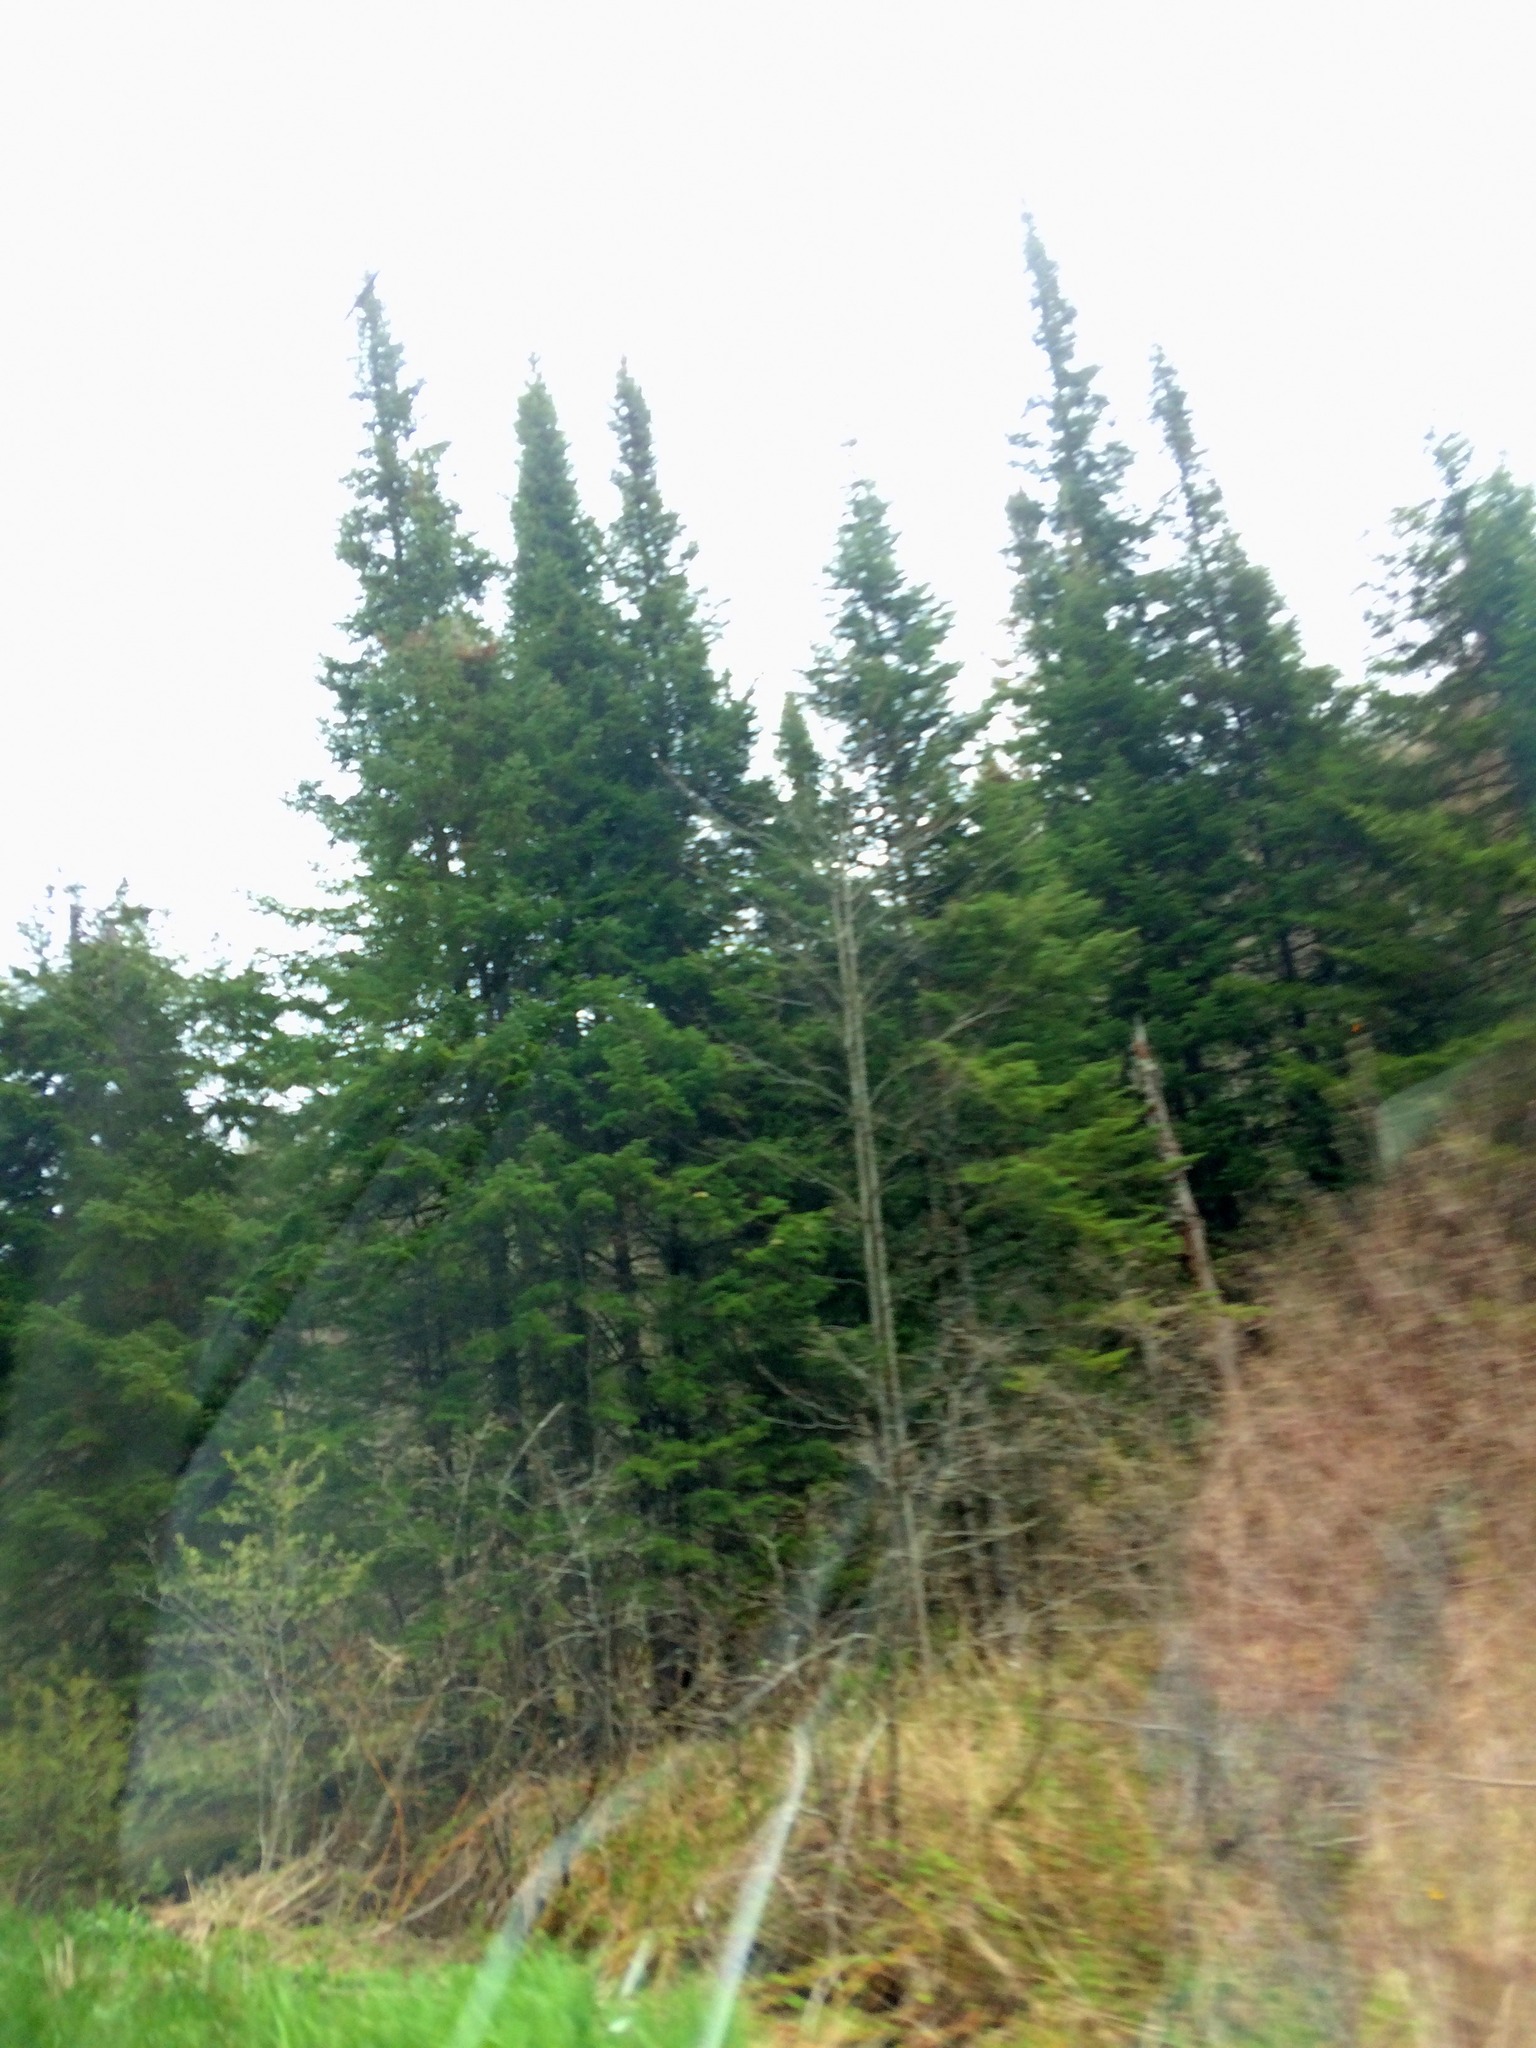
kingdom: Plantae
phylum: Tracheophyta
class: Pinopsida
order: Pinales
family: Pinaceae
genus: Abies
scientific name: Abies balsamea
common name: Balsam fir
